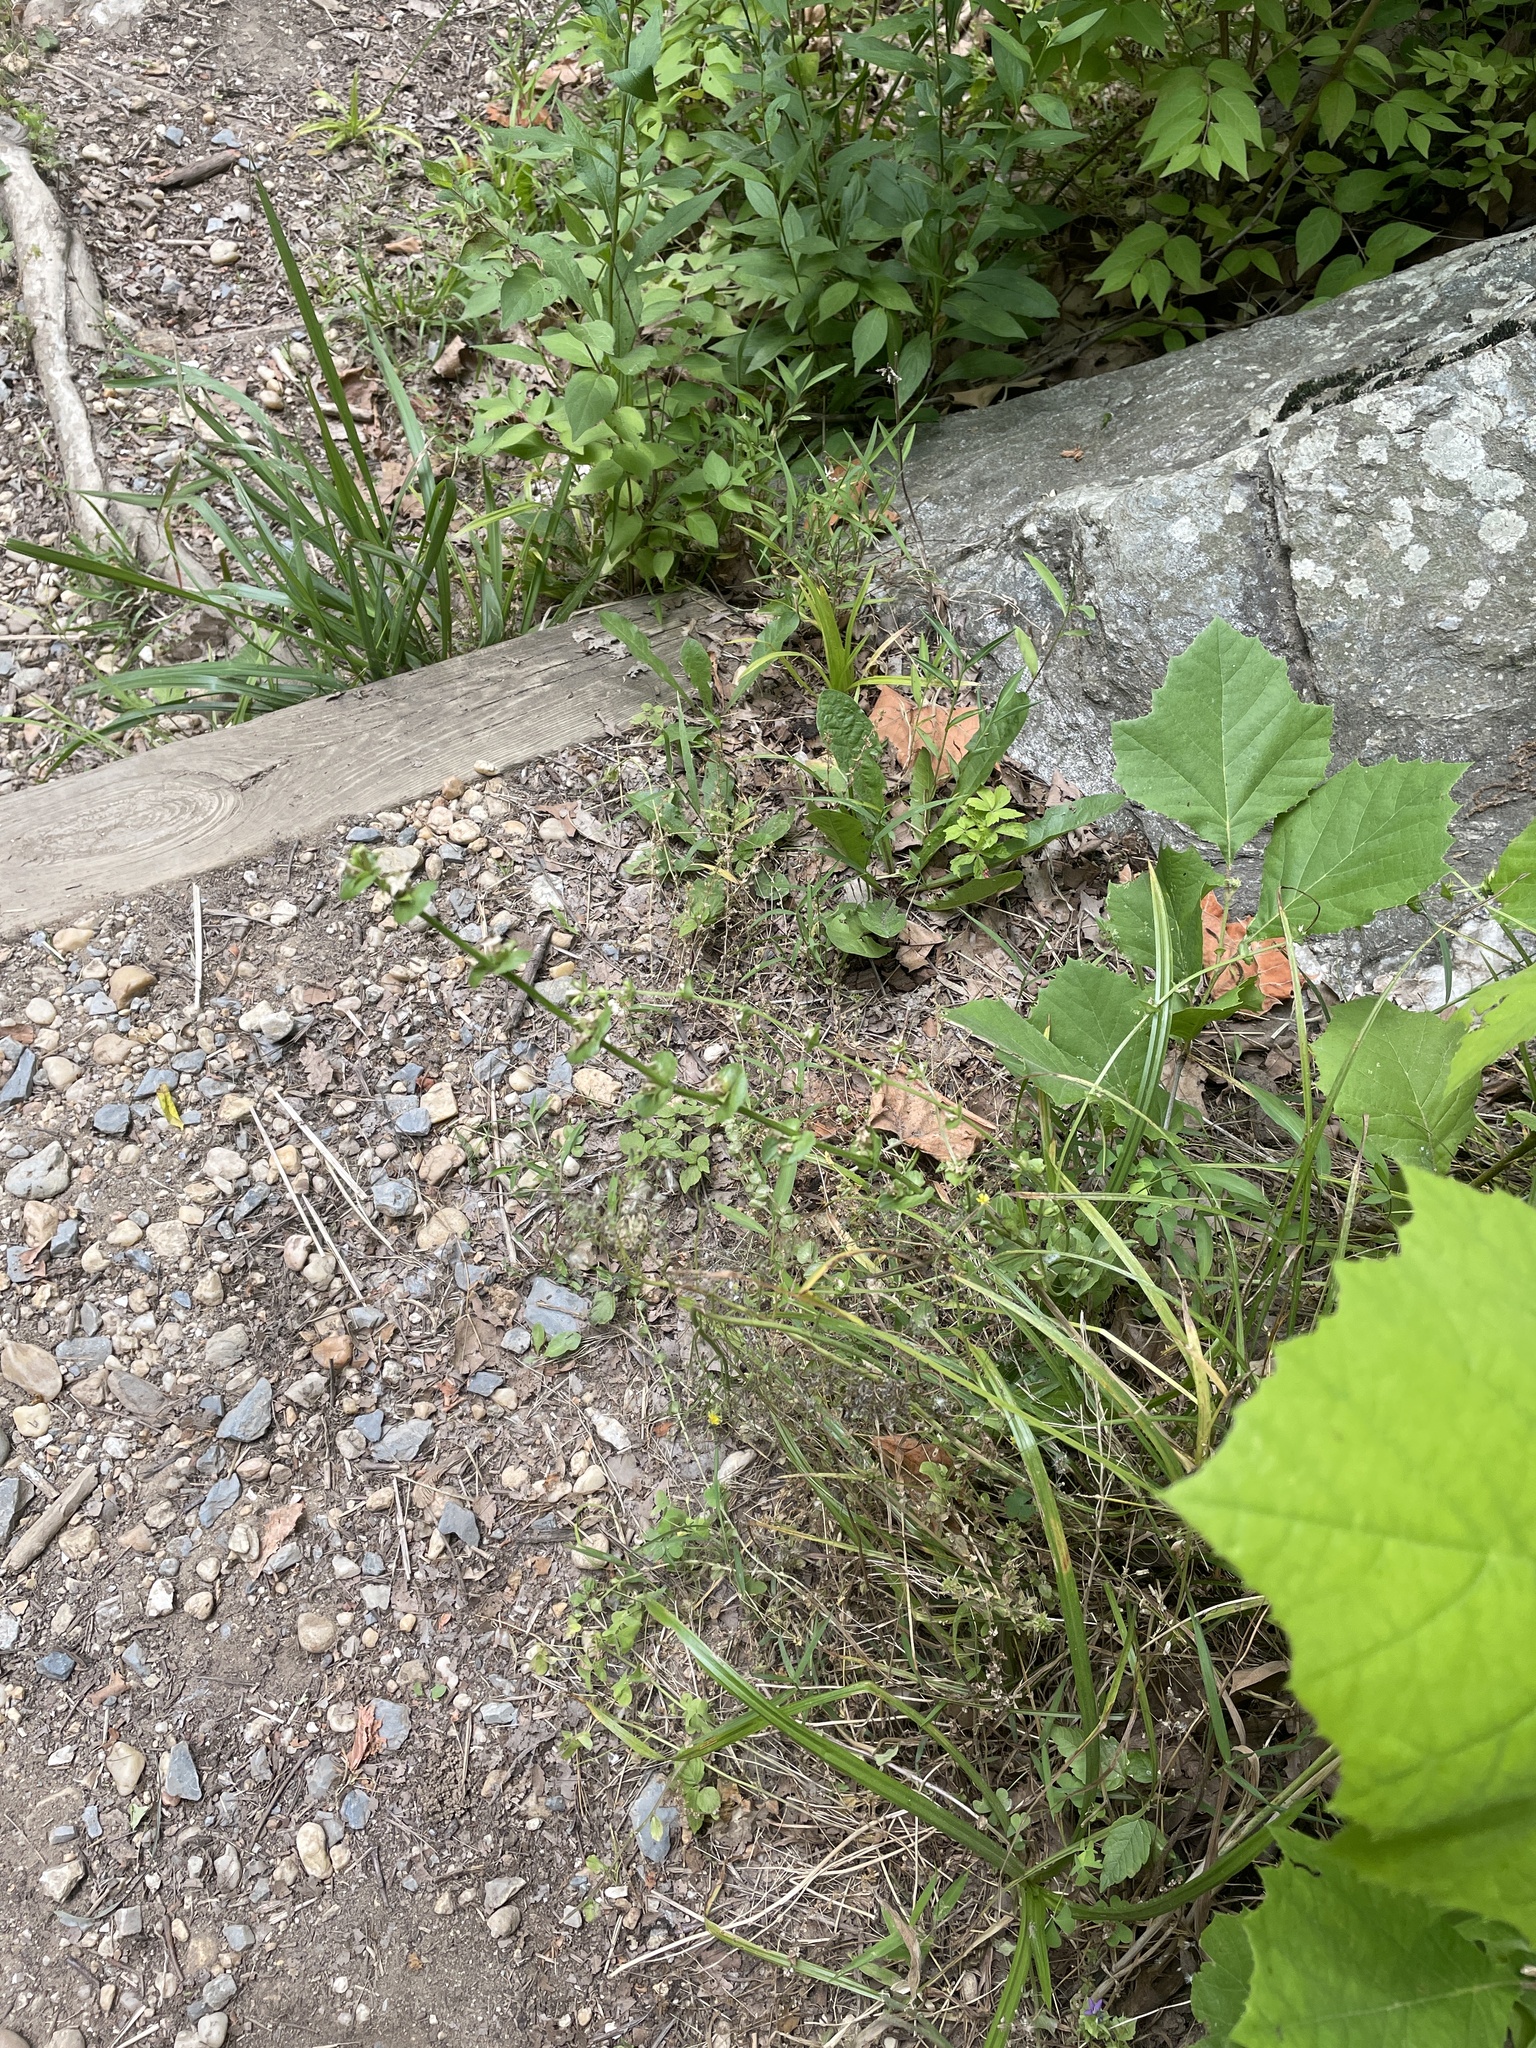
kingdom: Plantae
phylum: Tracheophyta
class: Magnoliopsida
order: Asterales
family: Campanulaceae
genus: Triodanis
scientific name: Triodanis perfoliata
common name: Clasping venus' looking-glass
